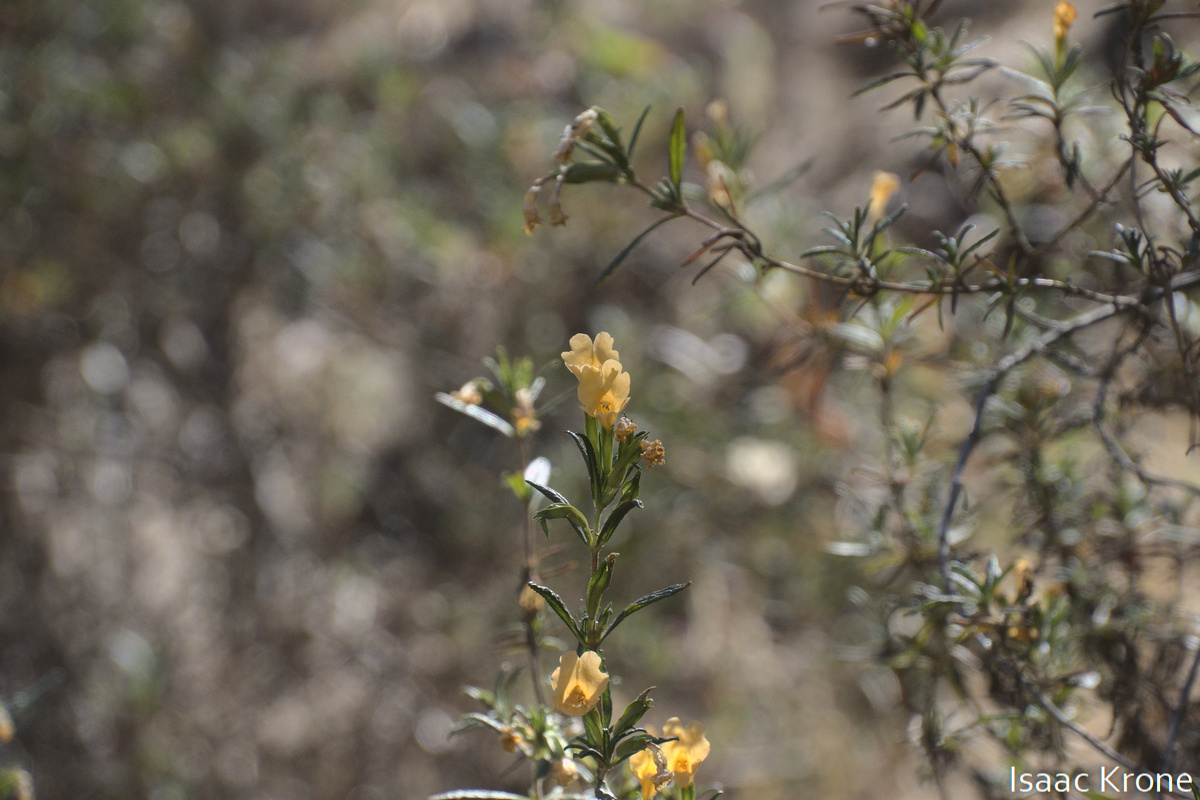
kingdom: Plantae
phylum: Tracheophyta
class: Magnoliopsida
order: Lamiales
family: Phrymaceae
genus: Diplacus
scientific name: Diplacus aurantiacus
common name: Bush monkey-flower
